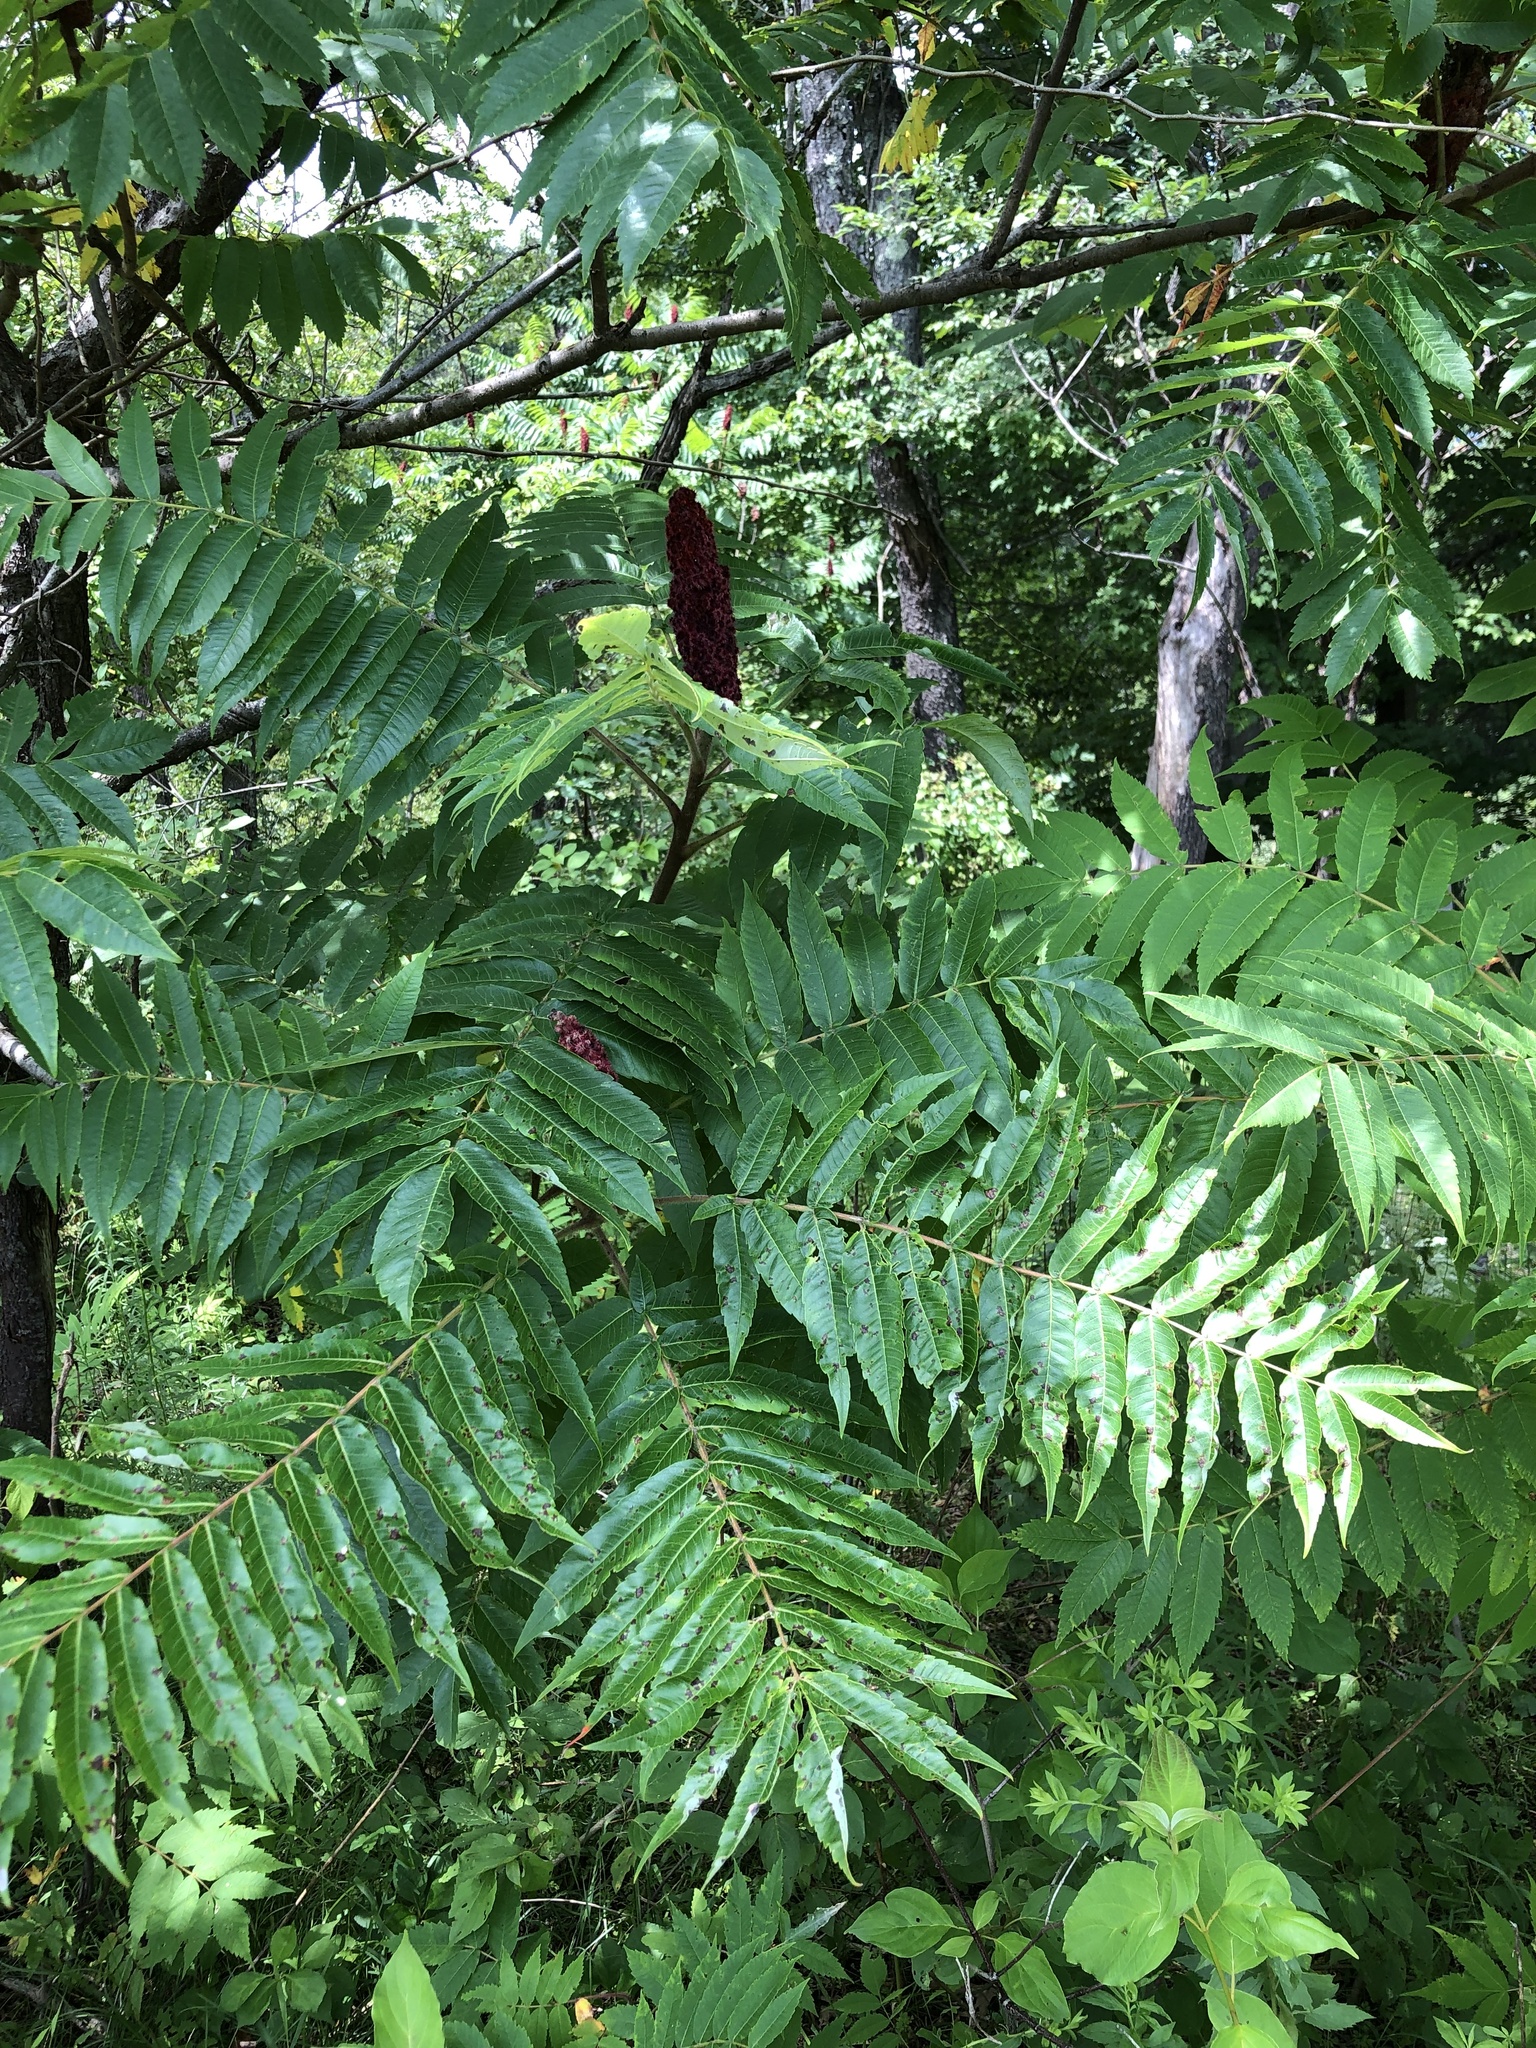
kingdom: Plantae
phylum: Tracheophyta
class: Magnoliopsida
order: Sapindales
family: Anacardiaceae
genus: Rhus
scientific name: Rhus typhina
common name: Staghorn sumac
